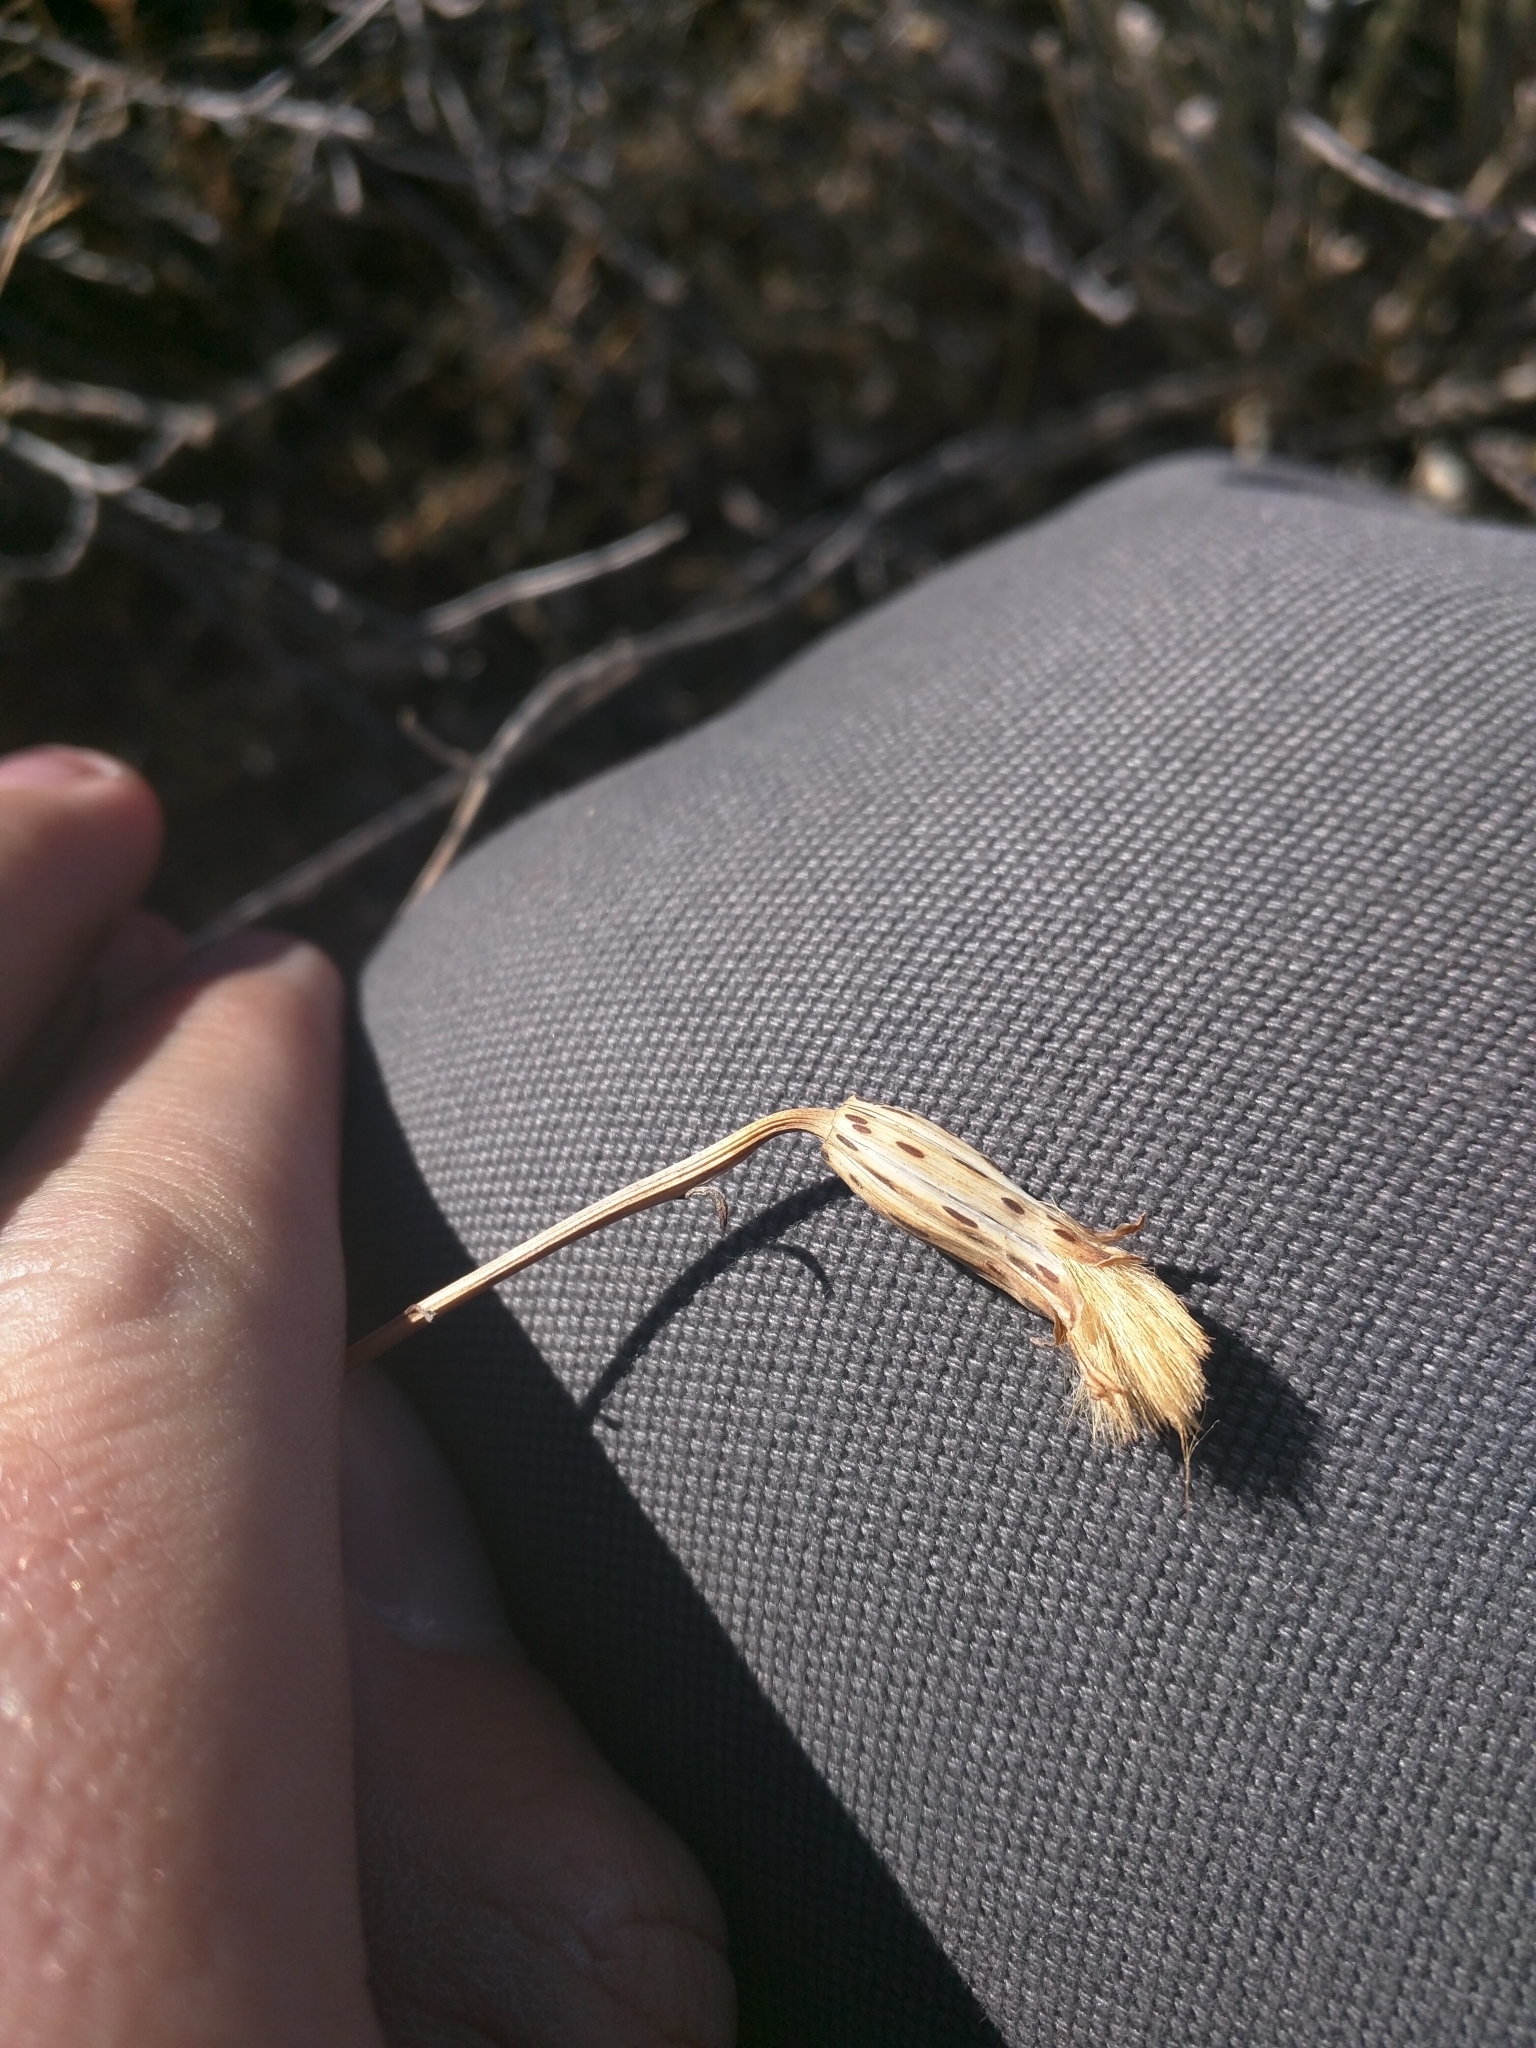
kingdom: Plantae
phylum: Tracheophyta
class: Magnoliopsida
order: Asterales
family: Asteraceae
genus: Porophyllum
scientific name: Porophyllum gracile
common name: Odora
